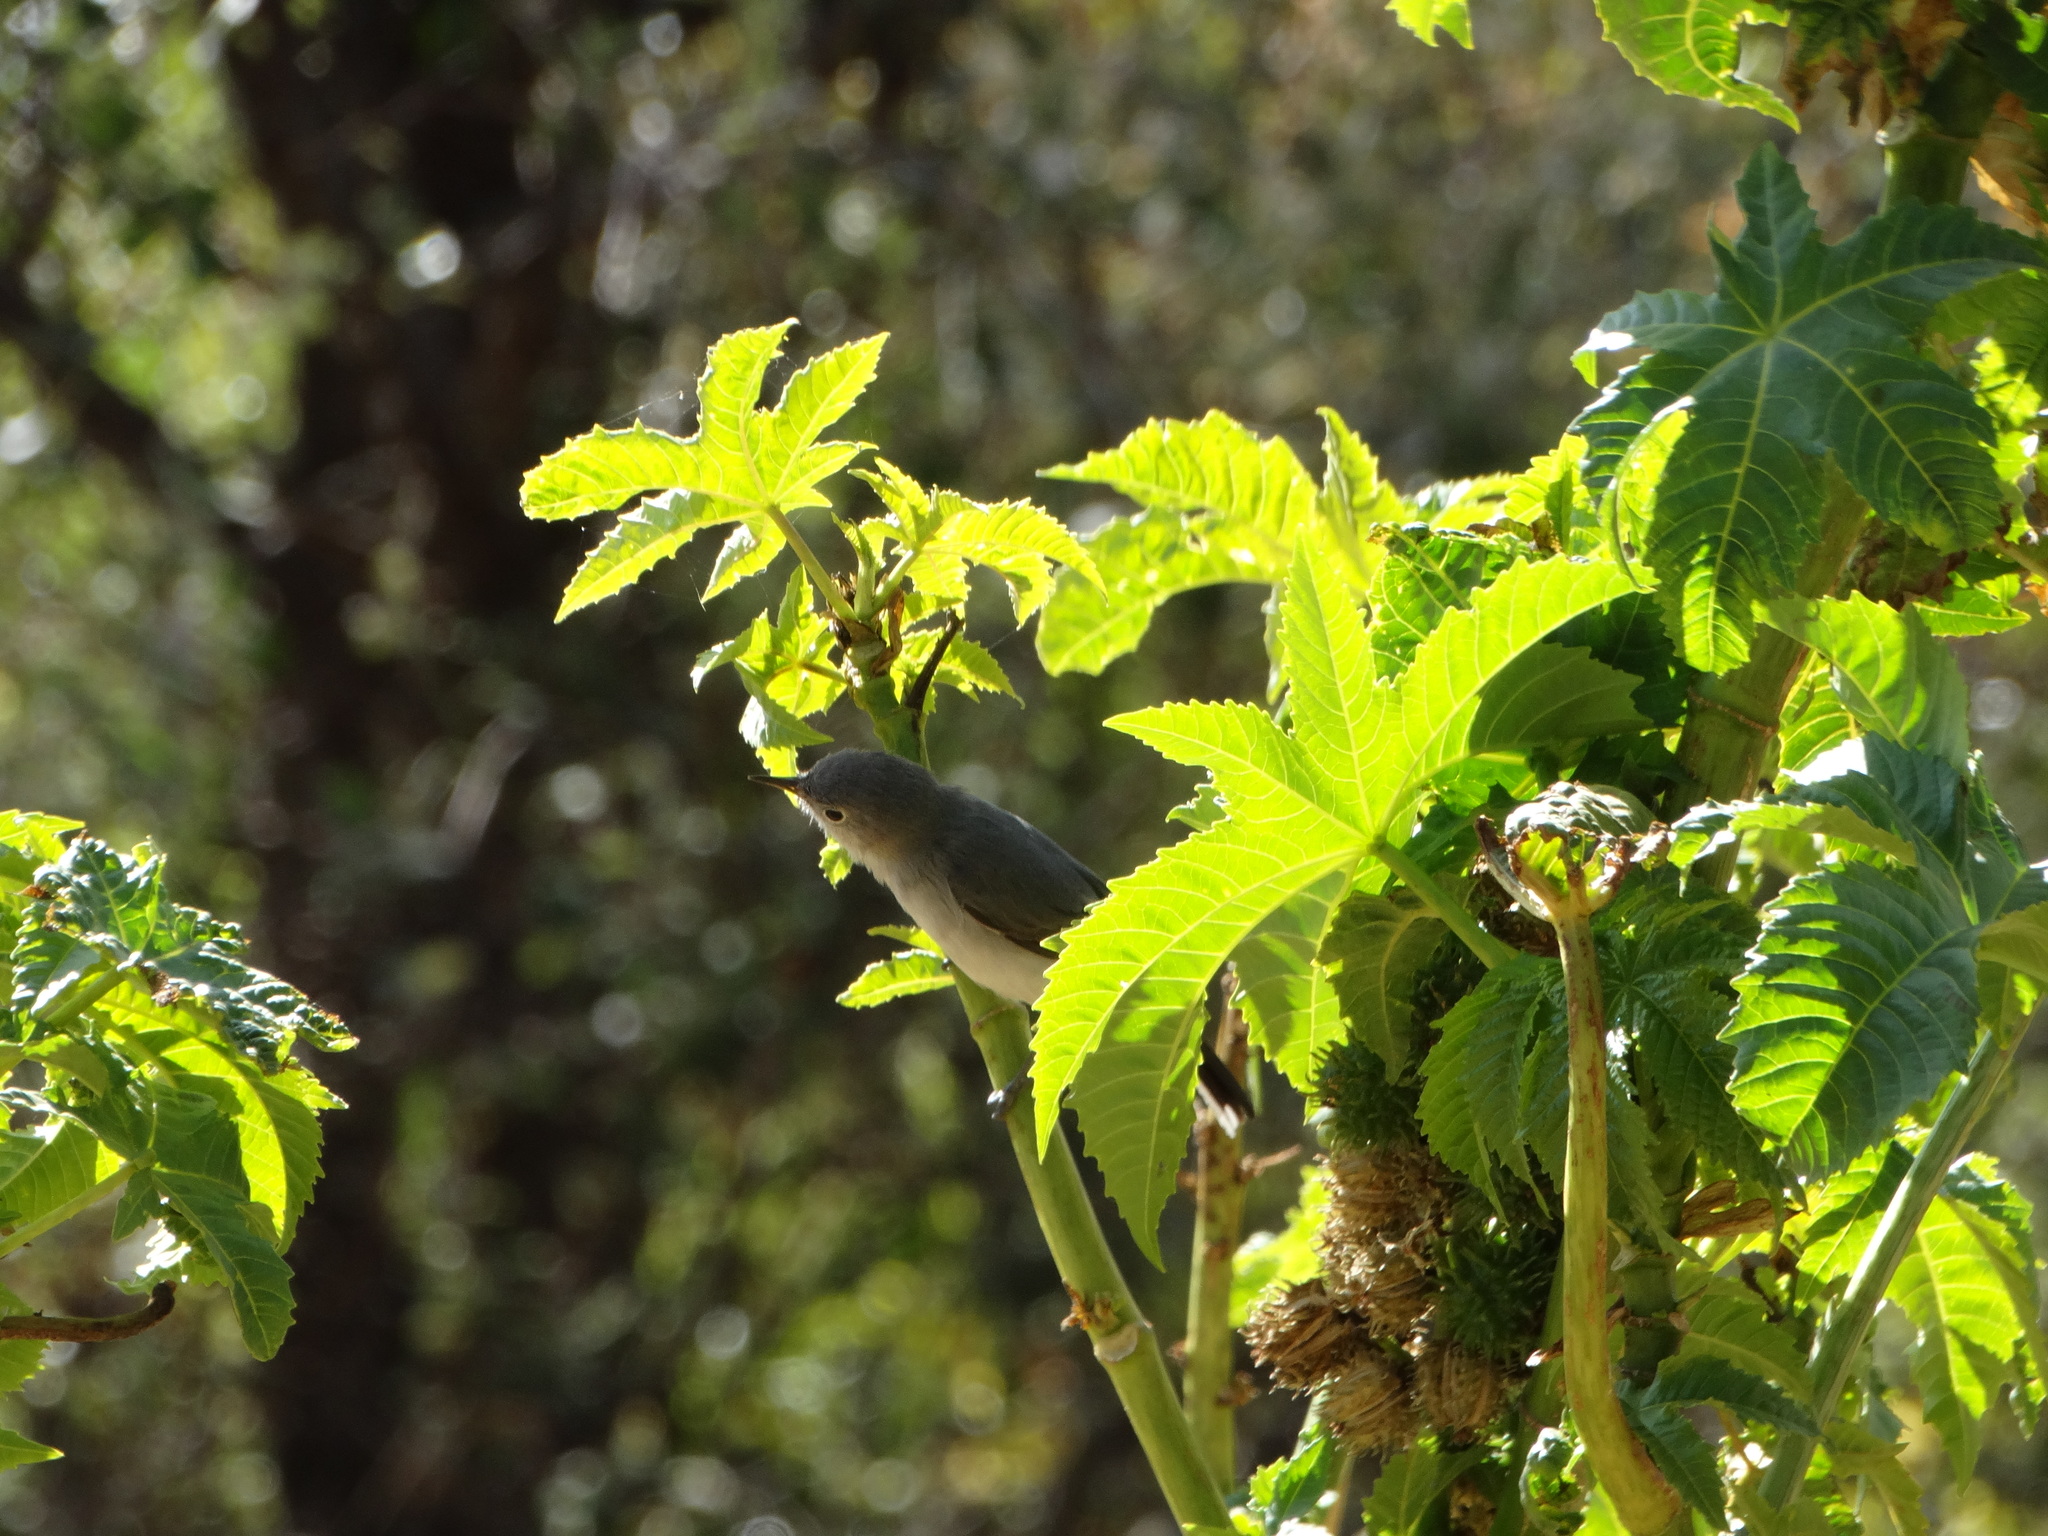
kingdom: Animalia
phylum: Chordata
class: Aves
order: Passeriformes
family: Polioptilidae
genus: Polioptila
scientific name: Polioptila caerulea
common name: Blue-gray gnatcatcher
